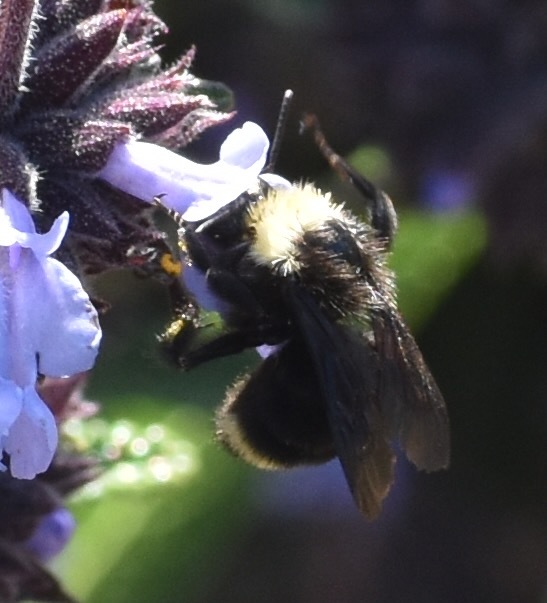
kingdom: Animalia
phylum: Arthropoda
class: Insecta
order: Hymenoptera
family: Apidae
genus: Bombus
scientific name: Bombus vosnesenskii
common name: Vosnesensky bumble bee
